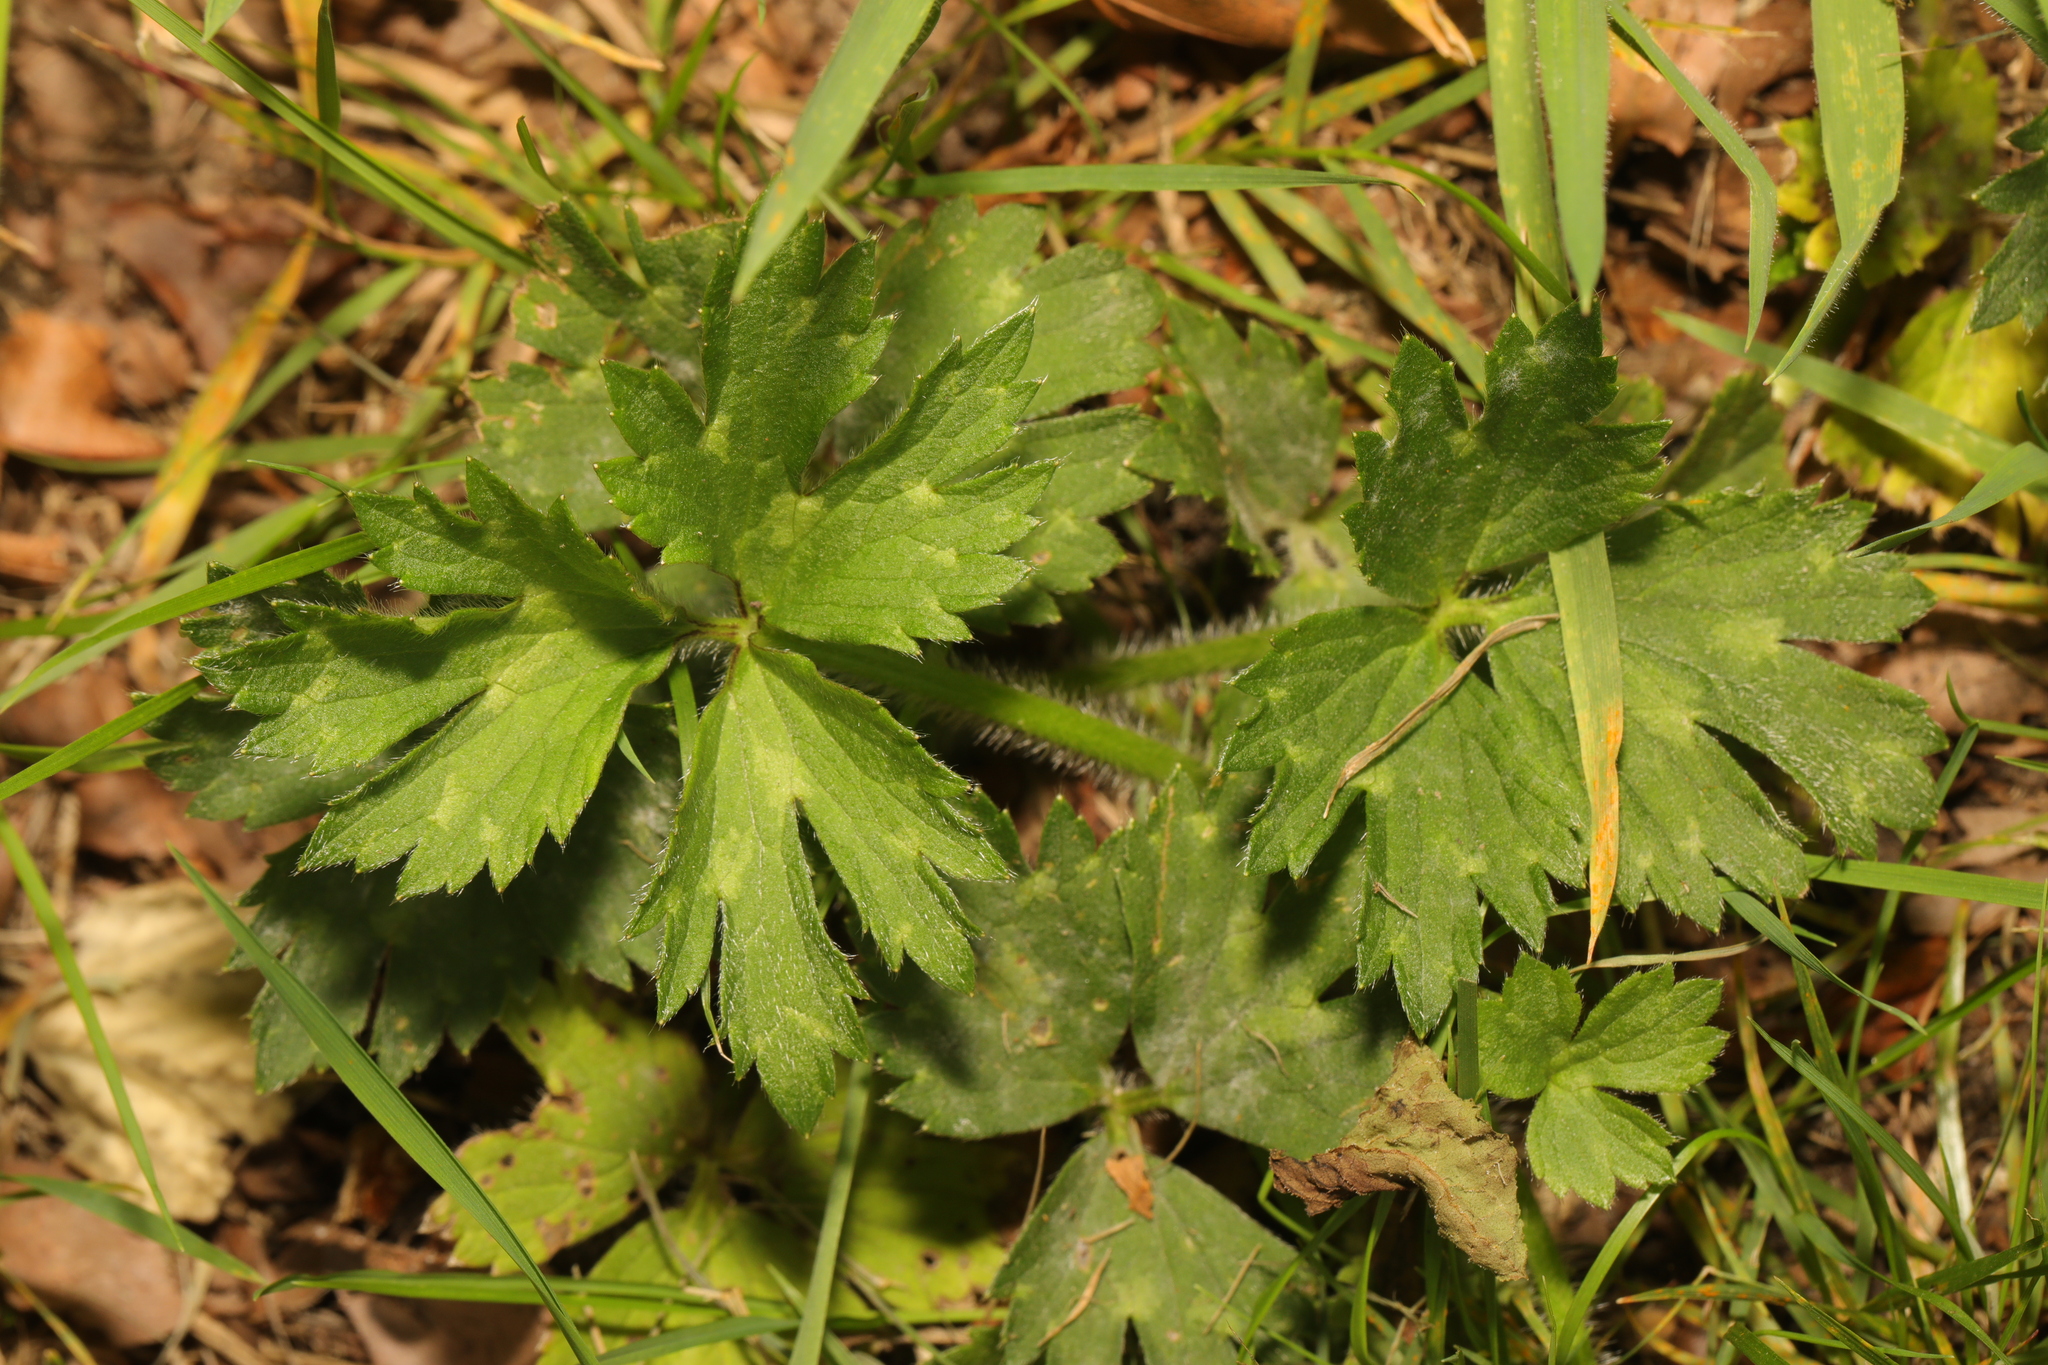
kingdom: Plantae
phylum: Tracheophyta
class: Magnoliopsida
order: Ranunculales
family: Ranunculaceae
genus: Ranunculus
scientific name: Ranunculus repens
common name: Creeping buttercup
